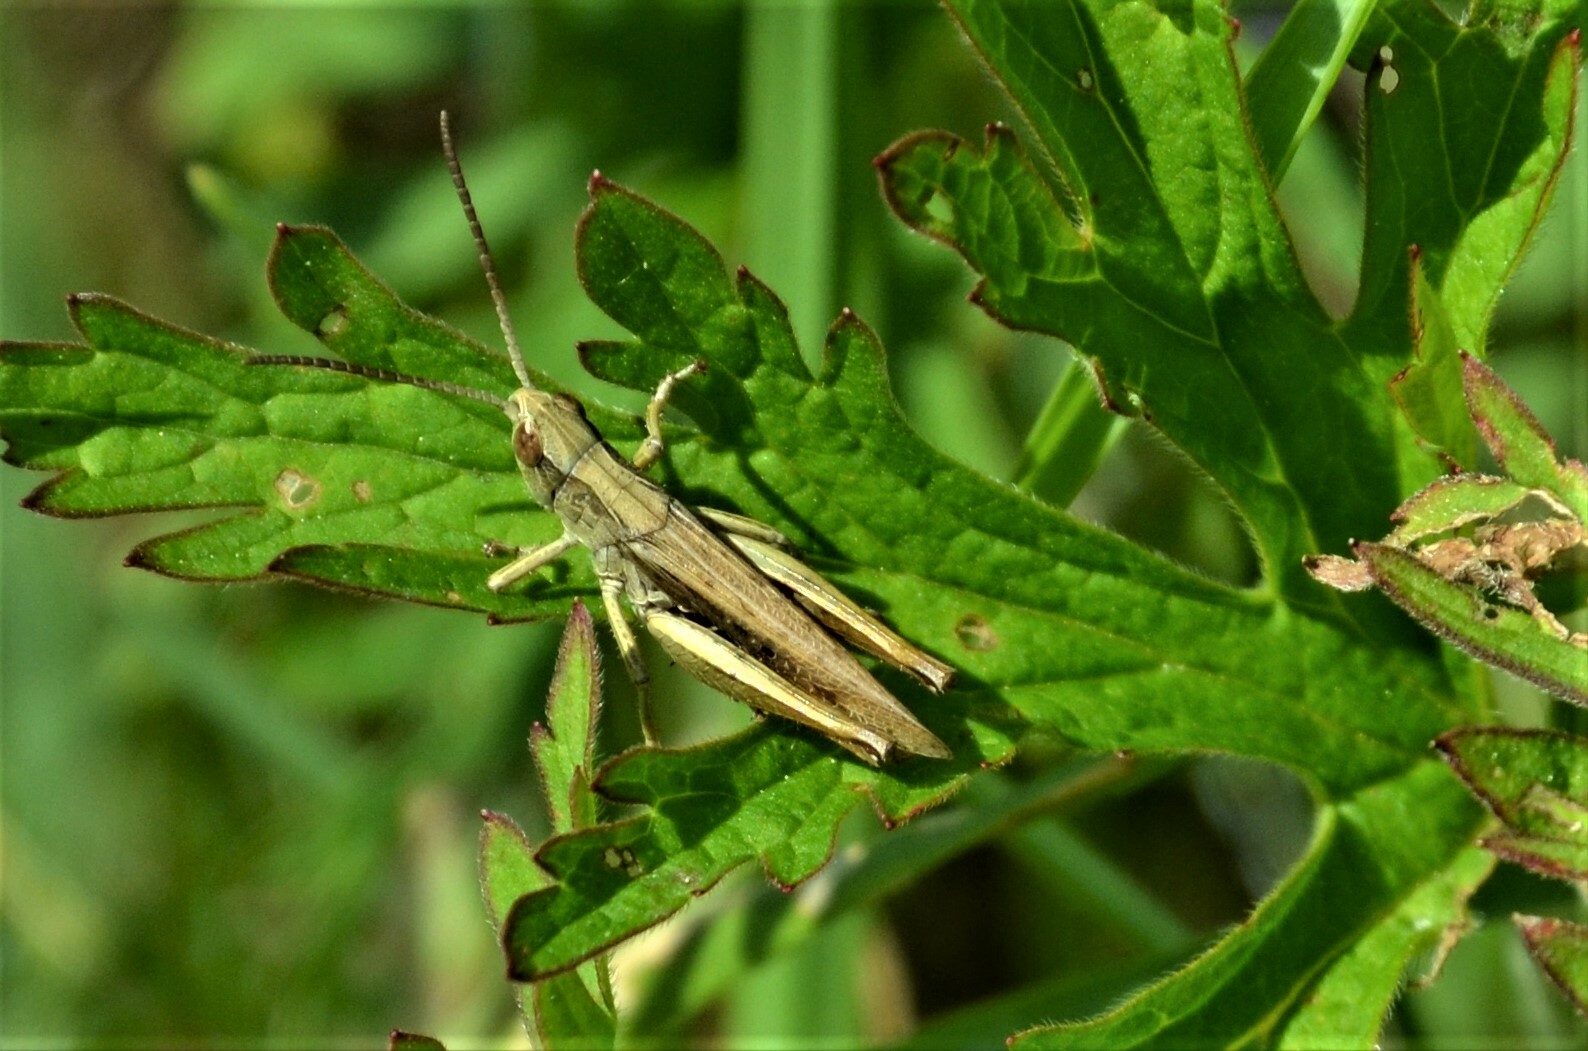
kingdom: Animalia
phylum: Arthropoda
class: Insecta
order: Orthoptera
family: Acrididae
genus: Chorthippus
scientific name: Chorthippus dorsatus
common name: Steppe grasshopper
